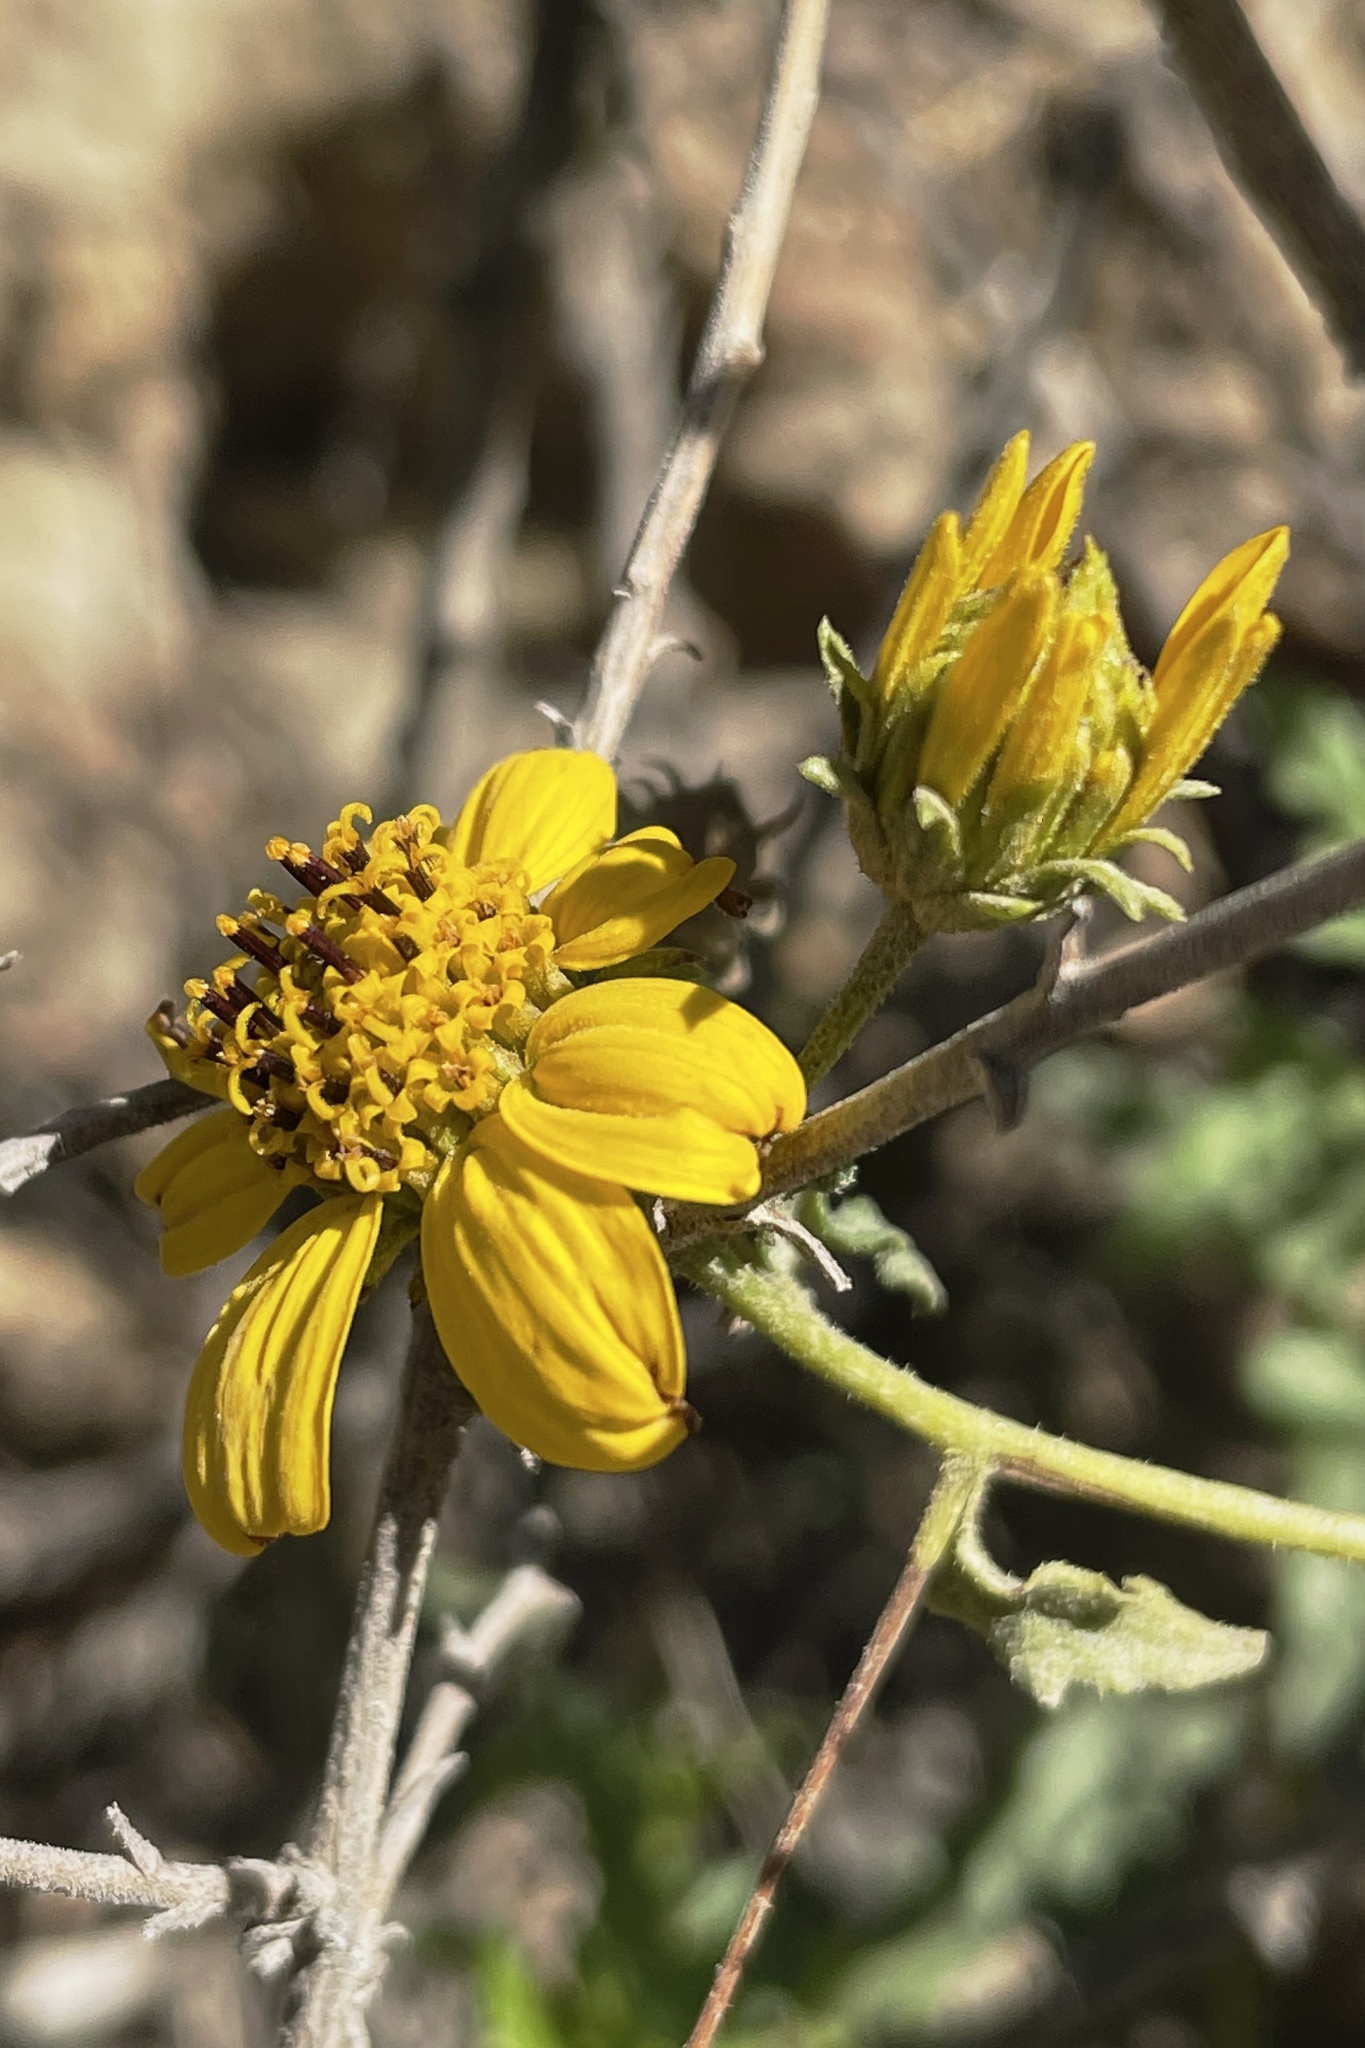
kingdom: Plantae
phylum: Tracheophyta
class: Magnoliopsida
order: Asterales
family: Asteraceae
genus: Bahiopsis
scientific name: Bahiopsis laciniata
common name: San diego county viguiera
